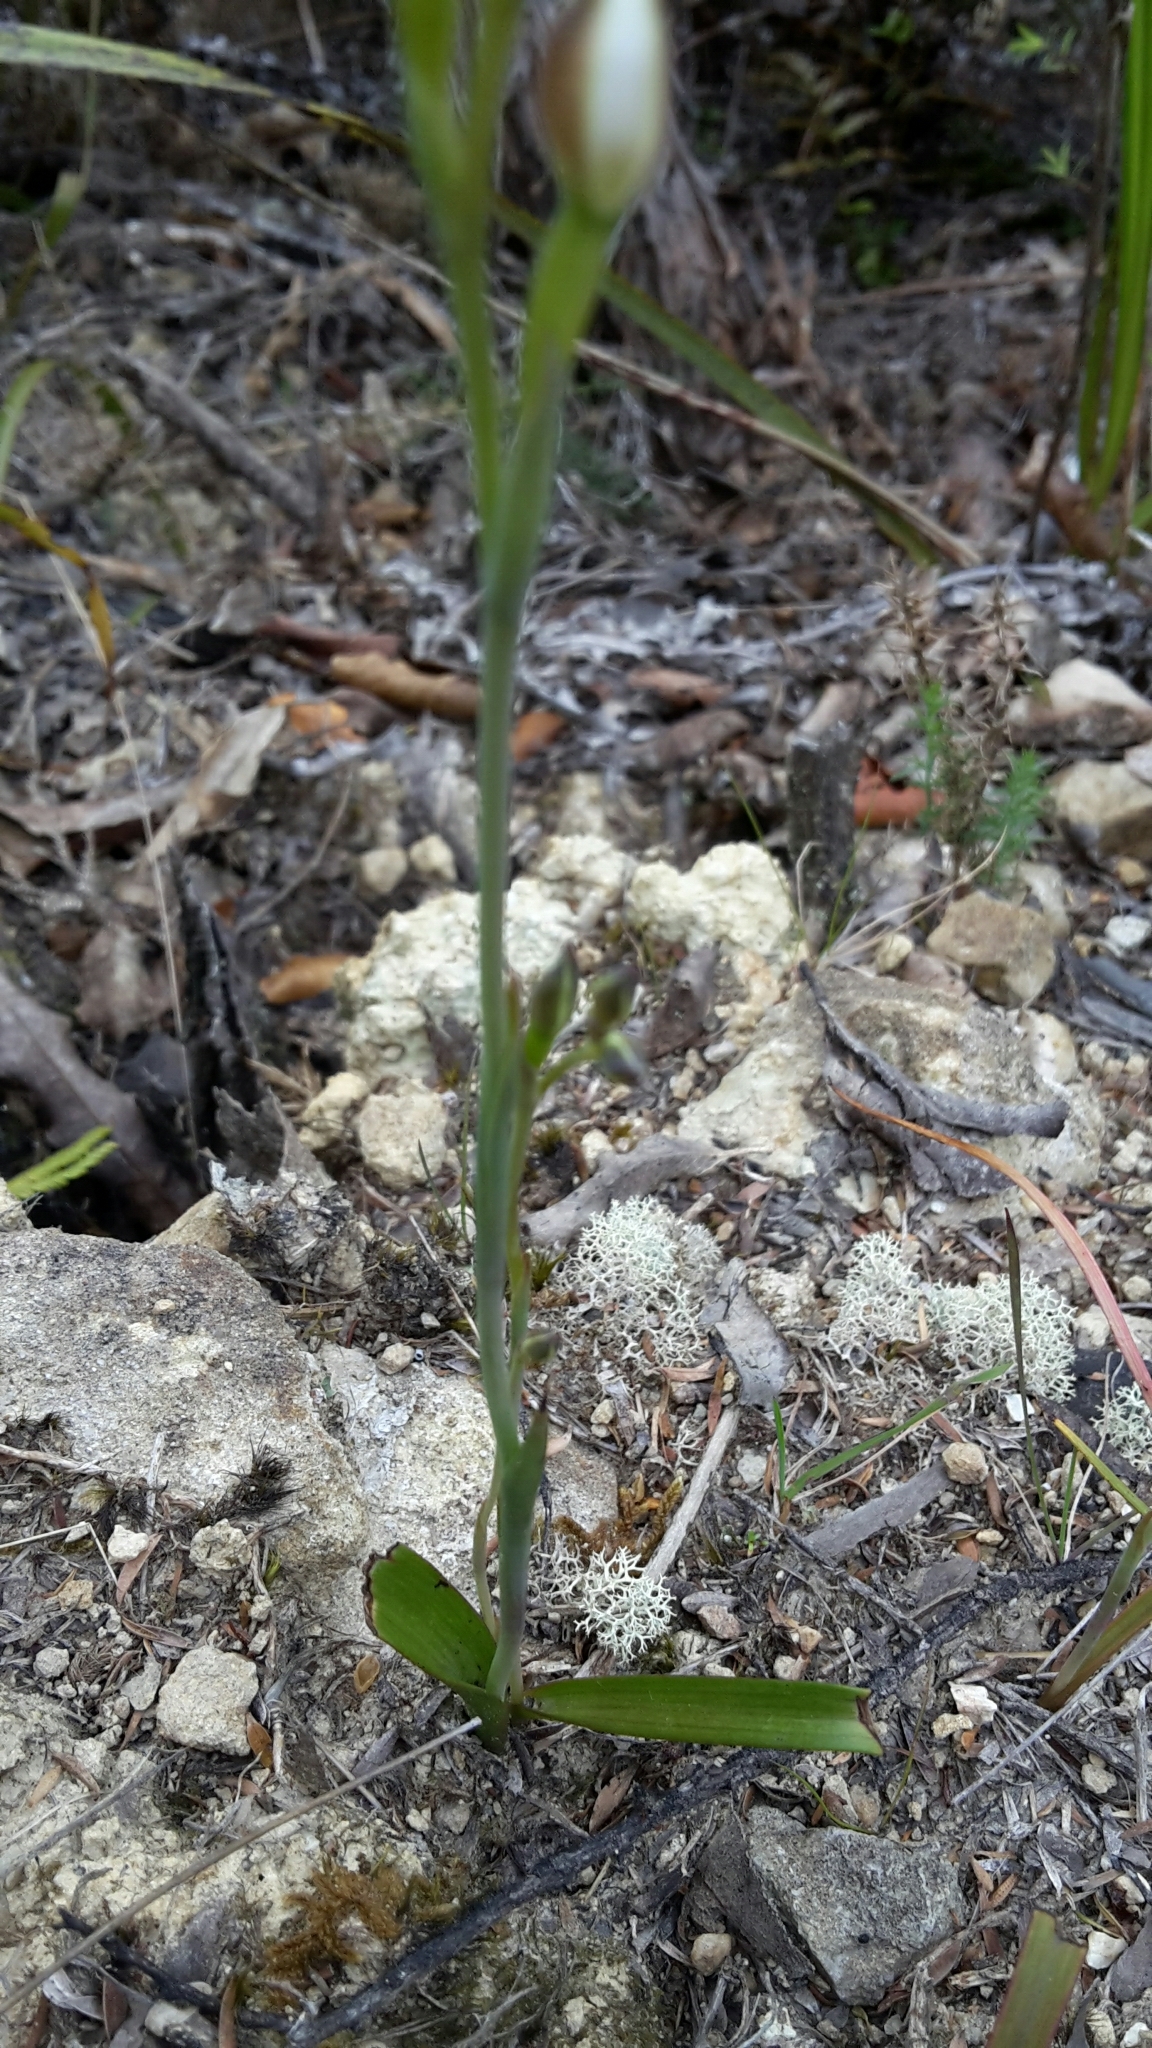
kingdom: Plantae
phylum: Tracheophyta
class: Liliopsida
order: Asparagales
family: Orchidaceae
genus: Thelymitra
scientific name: Thelymitra longifolia
